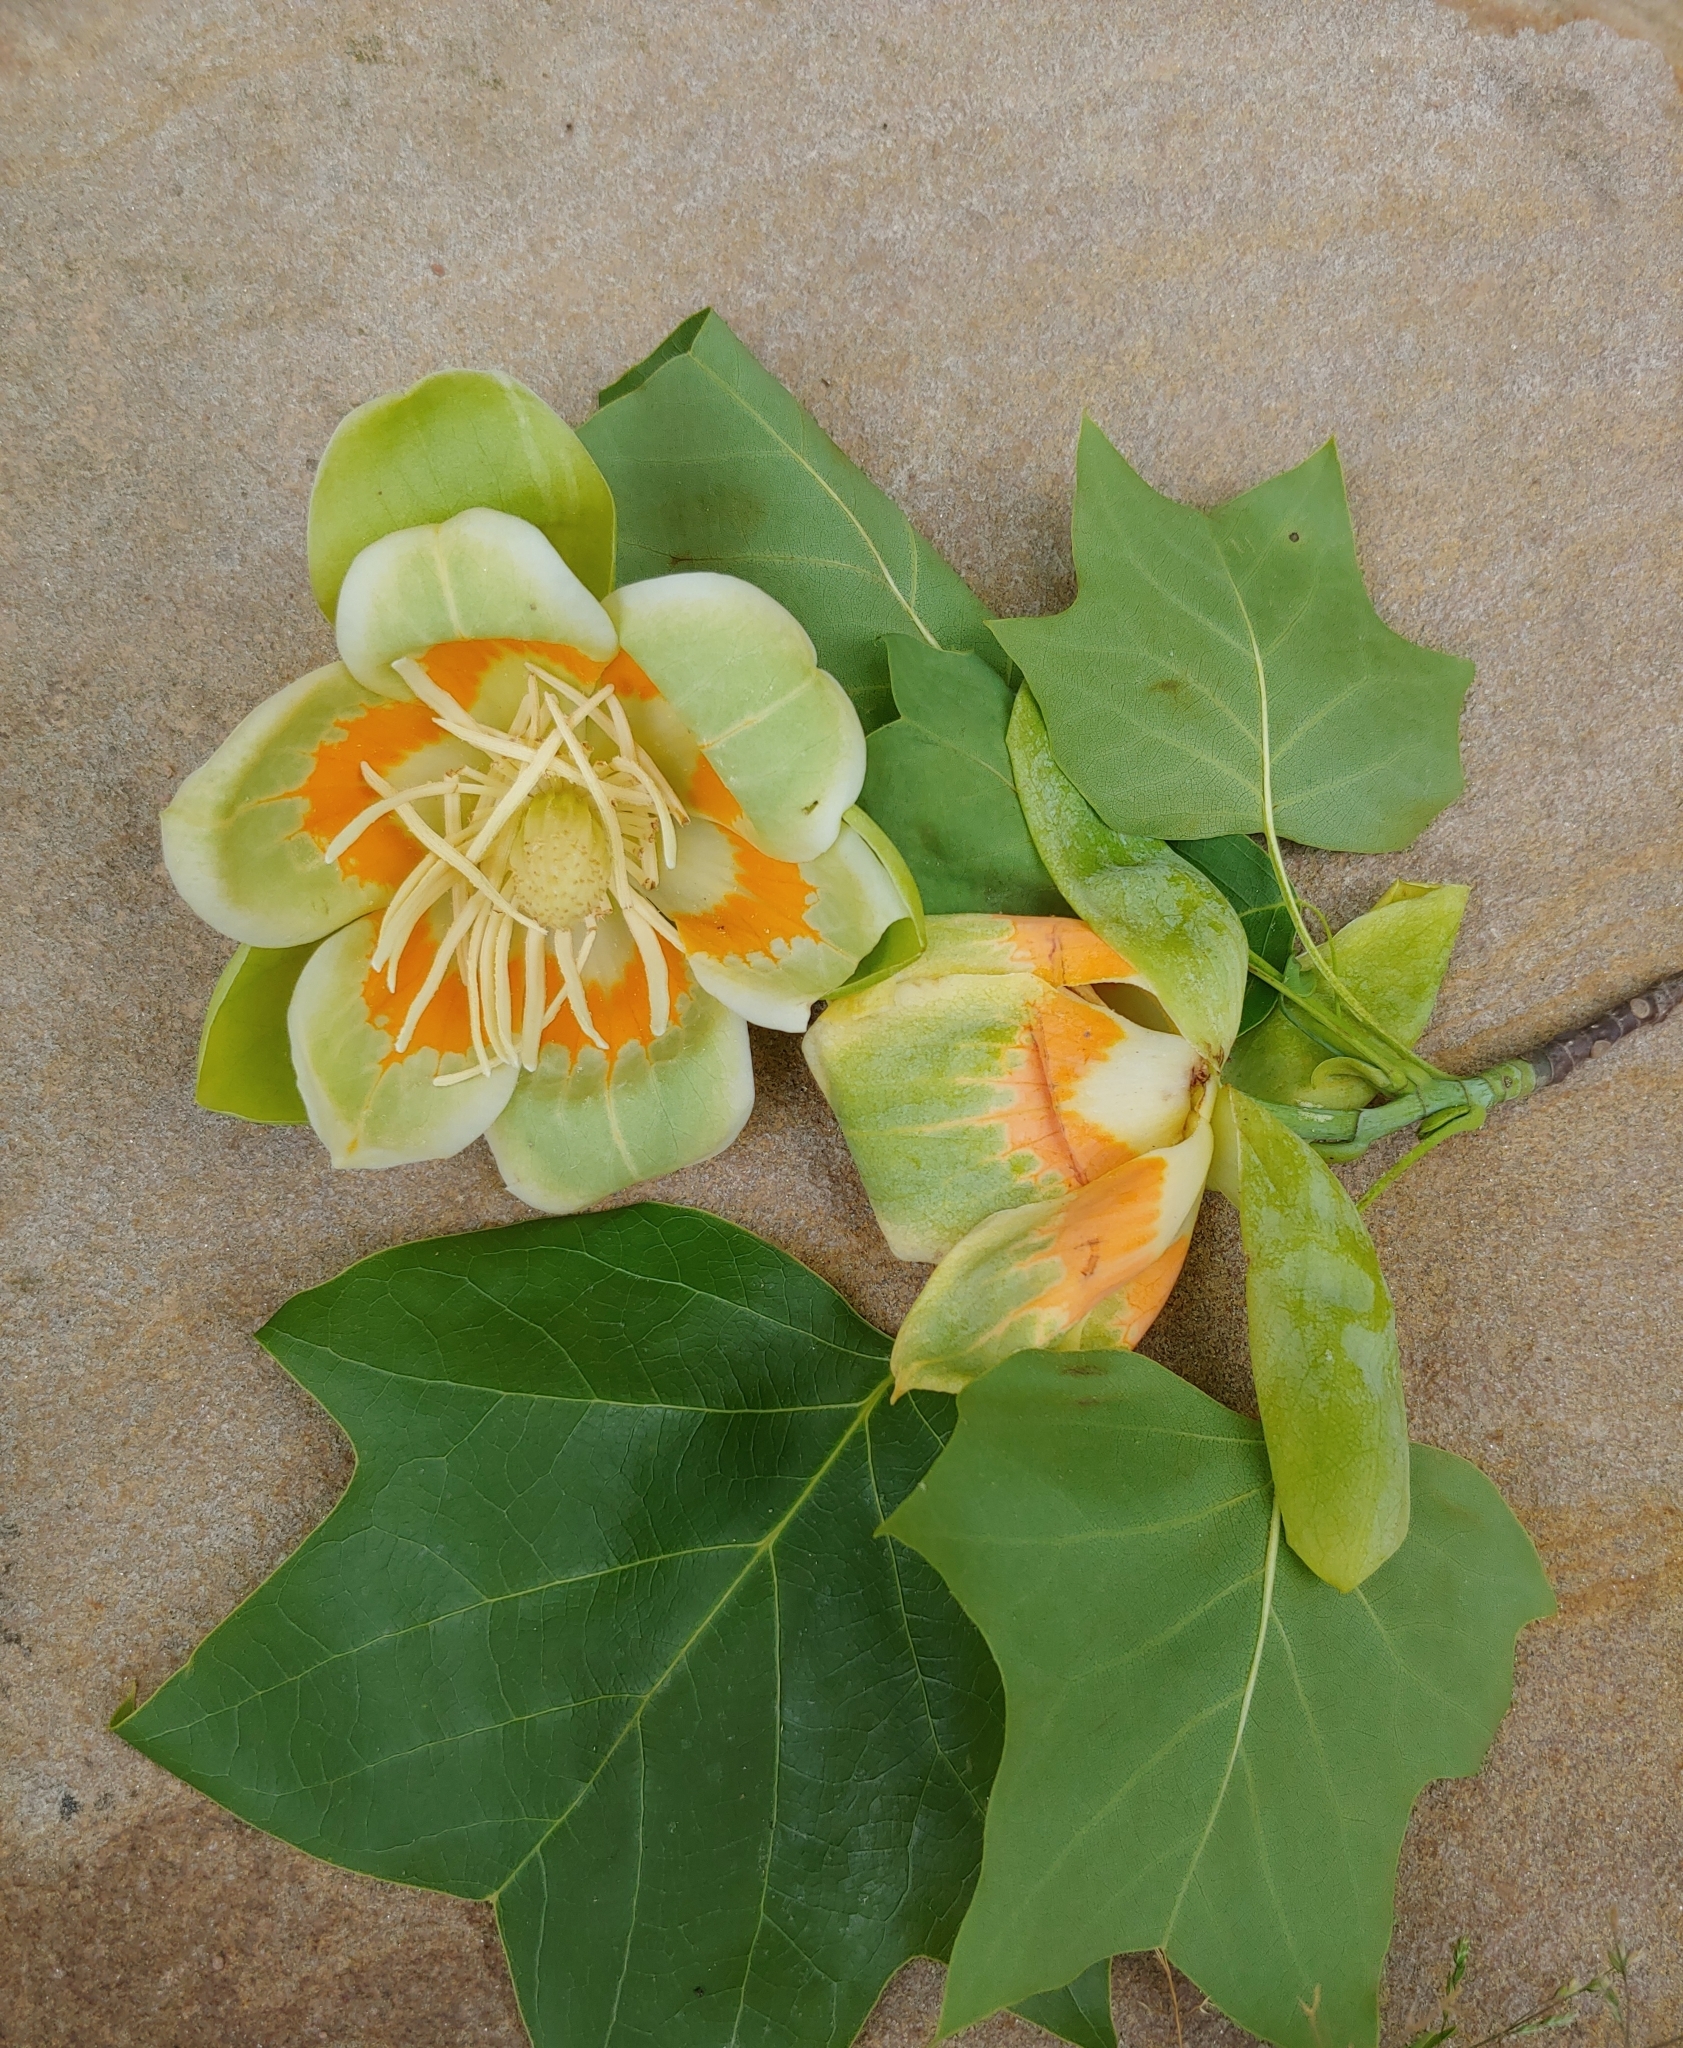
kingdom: Plantae
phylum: Tracheophyta
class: Magnoliopsida
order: Magnoliales
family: Magnoliaceae
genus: Liriodendron
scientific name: Liriodendron tulipifera
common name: Tulip tree
